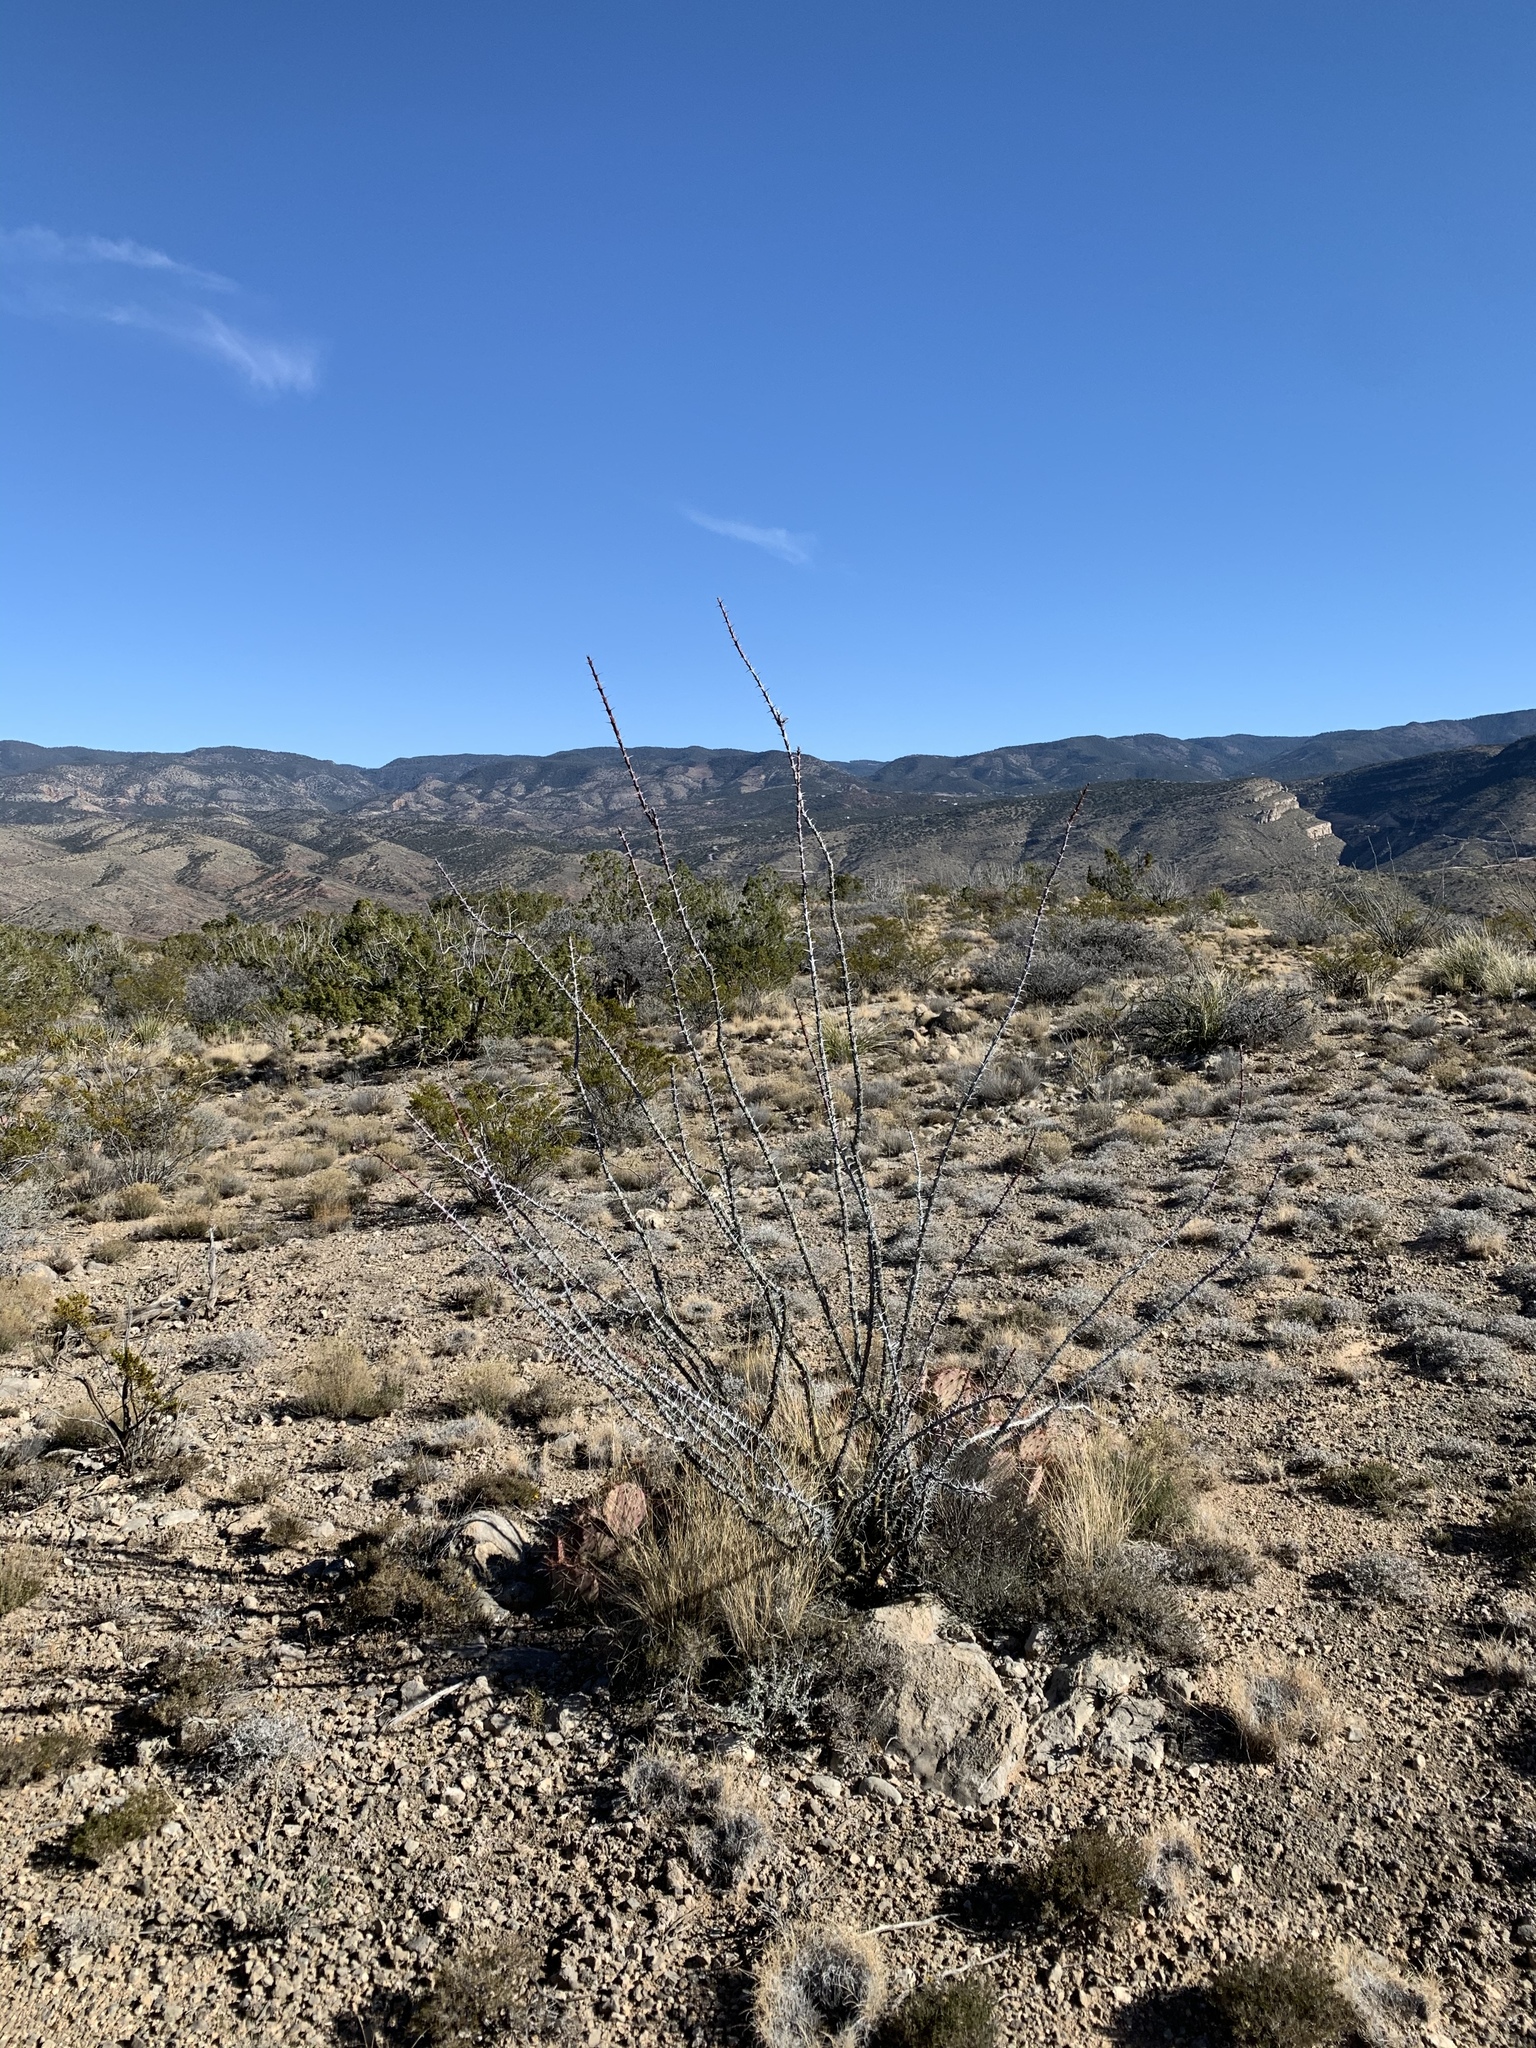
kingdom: Plantae
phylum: Tracheophyta
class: Magnoliopsida
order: Ericales
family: Fouquieriaceae
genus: Fouquieria
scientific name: Fouquieria splendens
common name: Vine-cactus
